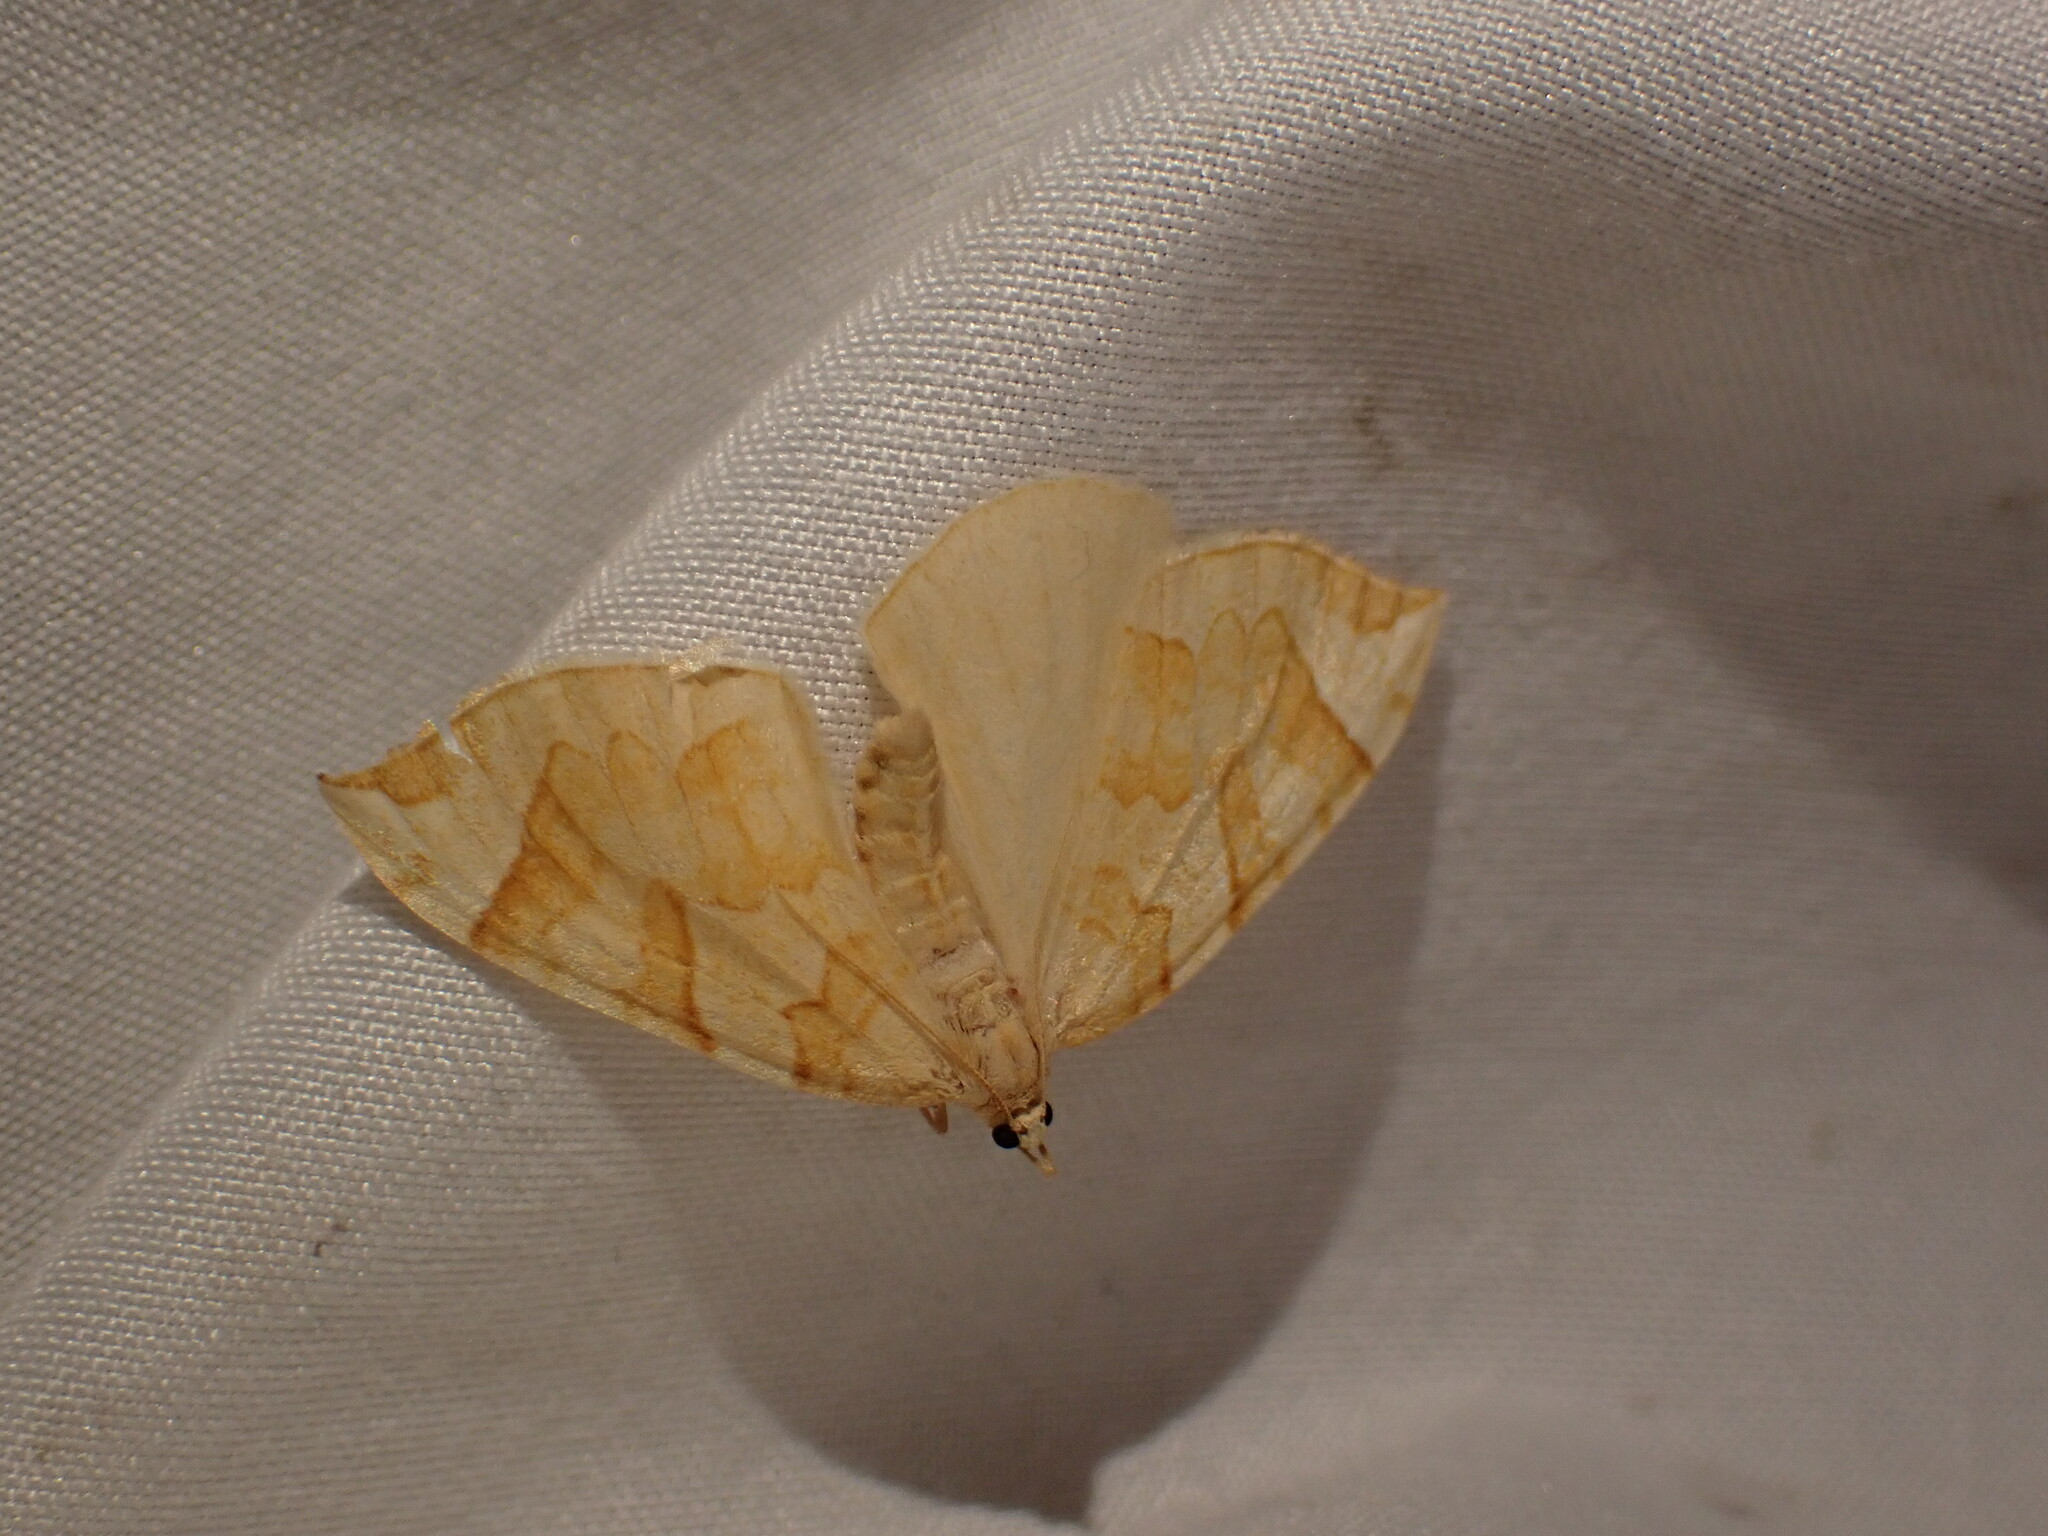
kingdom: Animalia
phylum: Arthropoda
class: Insecta
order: Lepidoptera
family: Geometridae
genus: Eulithis
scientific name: Eulithis propulsata
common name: Currant eulithis moth
